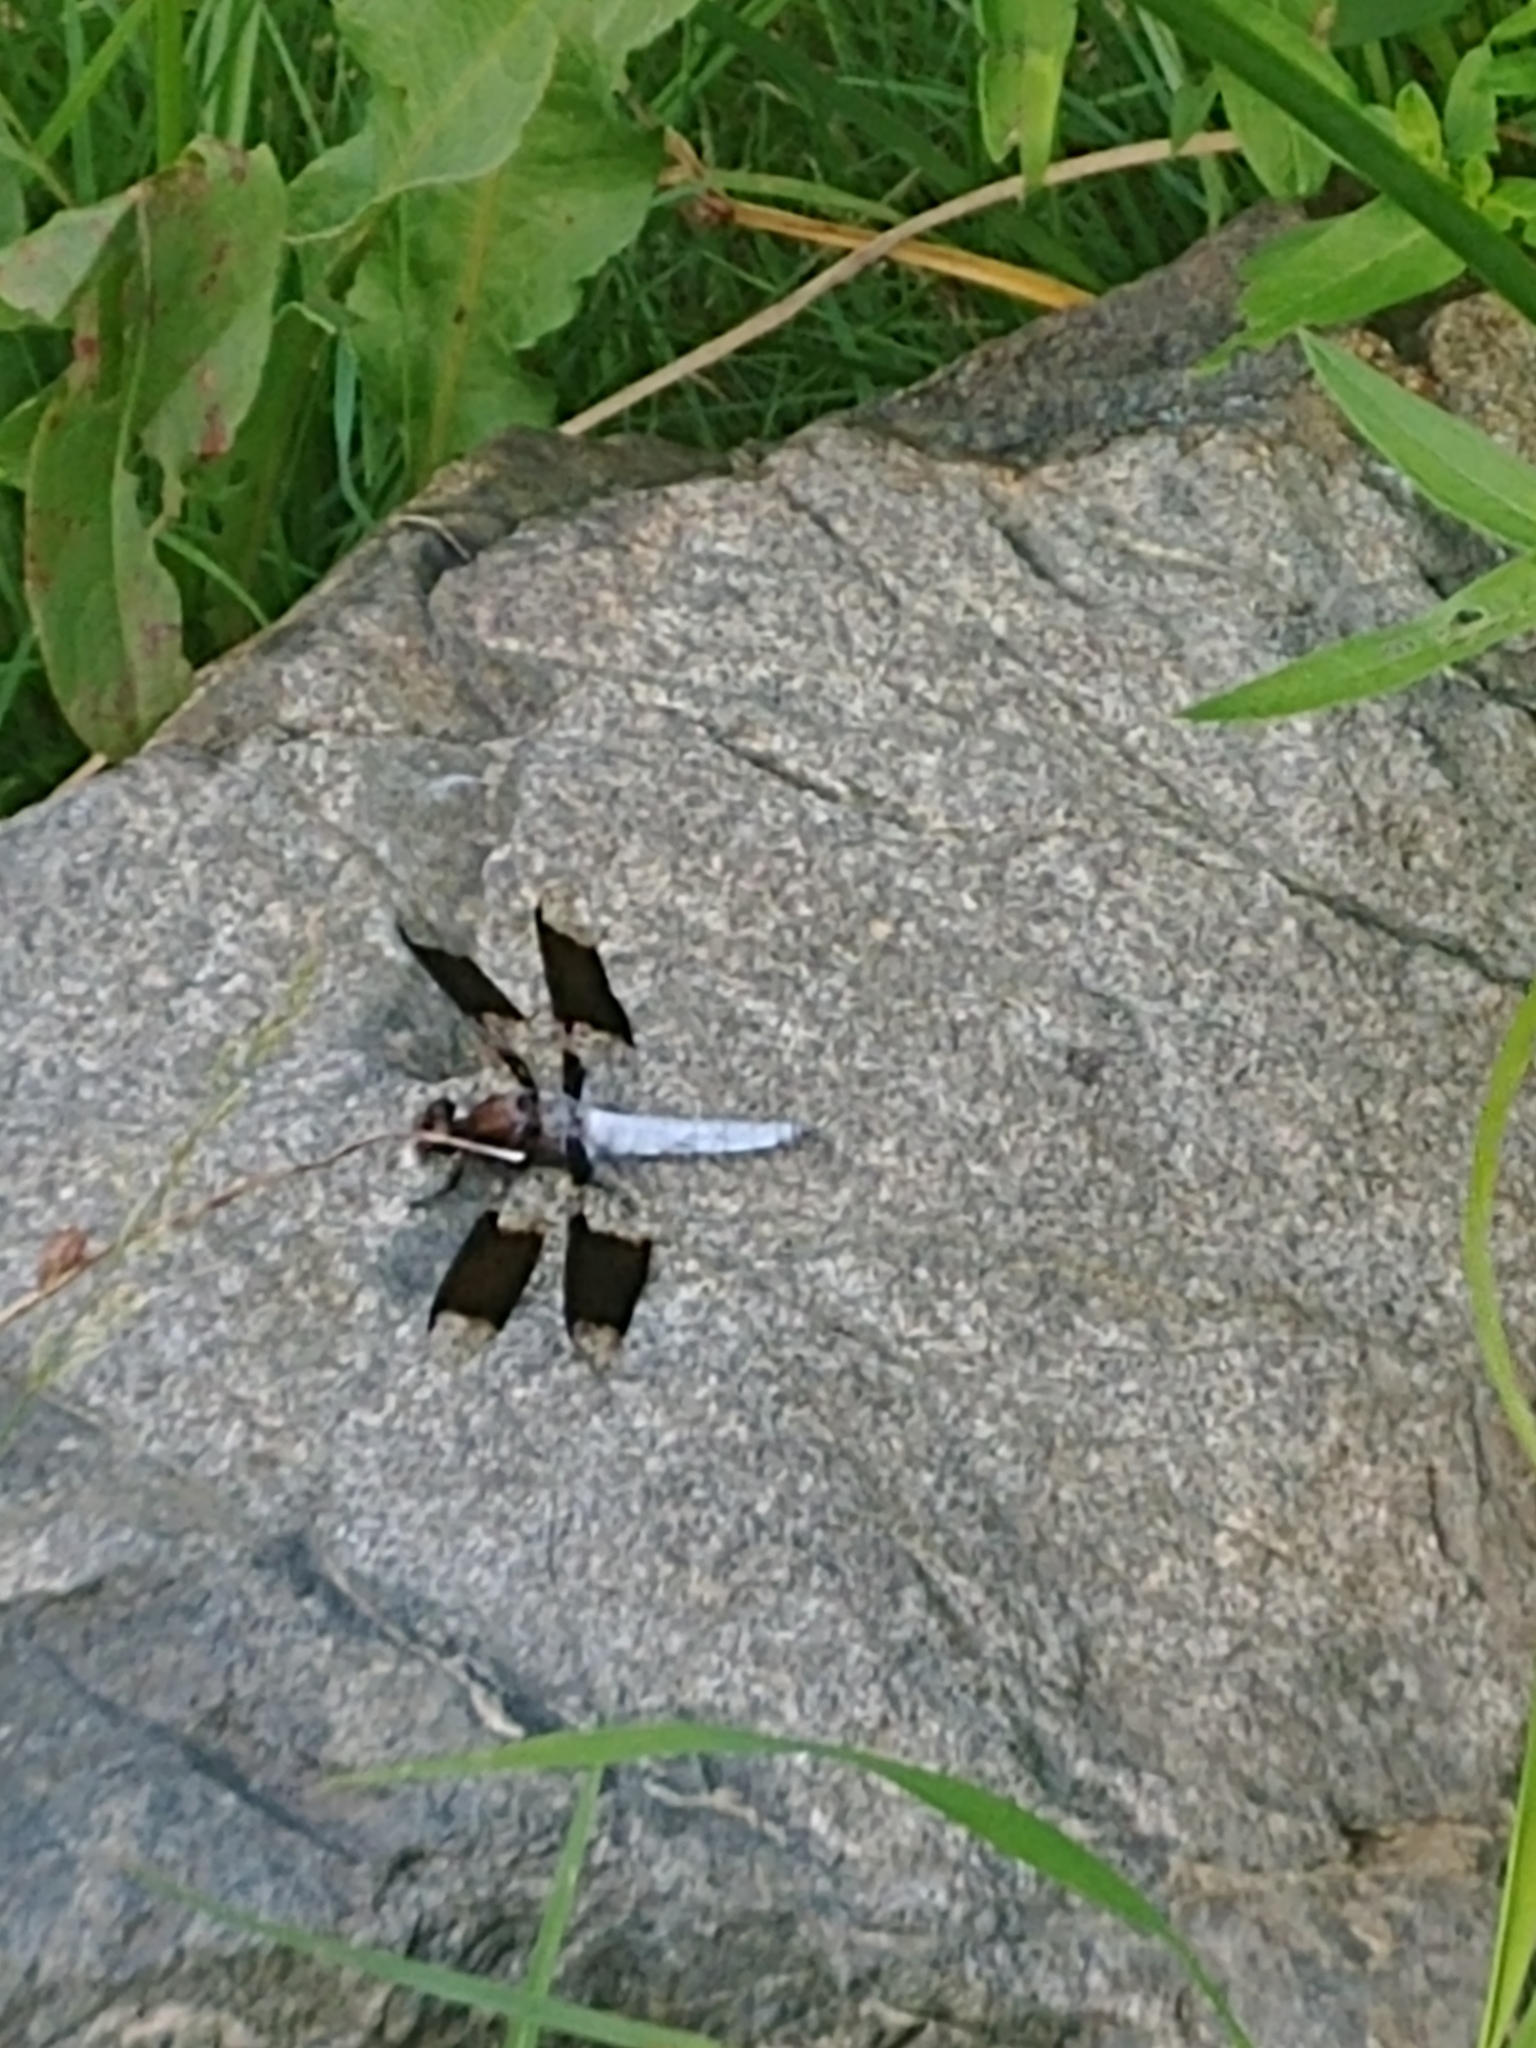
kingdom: Animalia
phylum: Arthropoda
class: Insecta
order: Odonata
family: Libellulidae
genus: Plathemis
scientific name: Plathemis lydia
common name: Common whitetail
